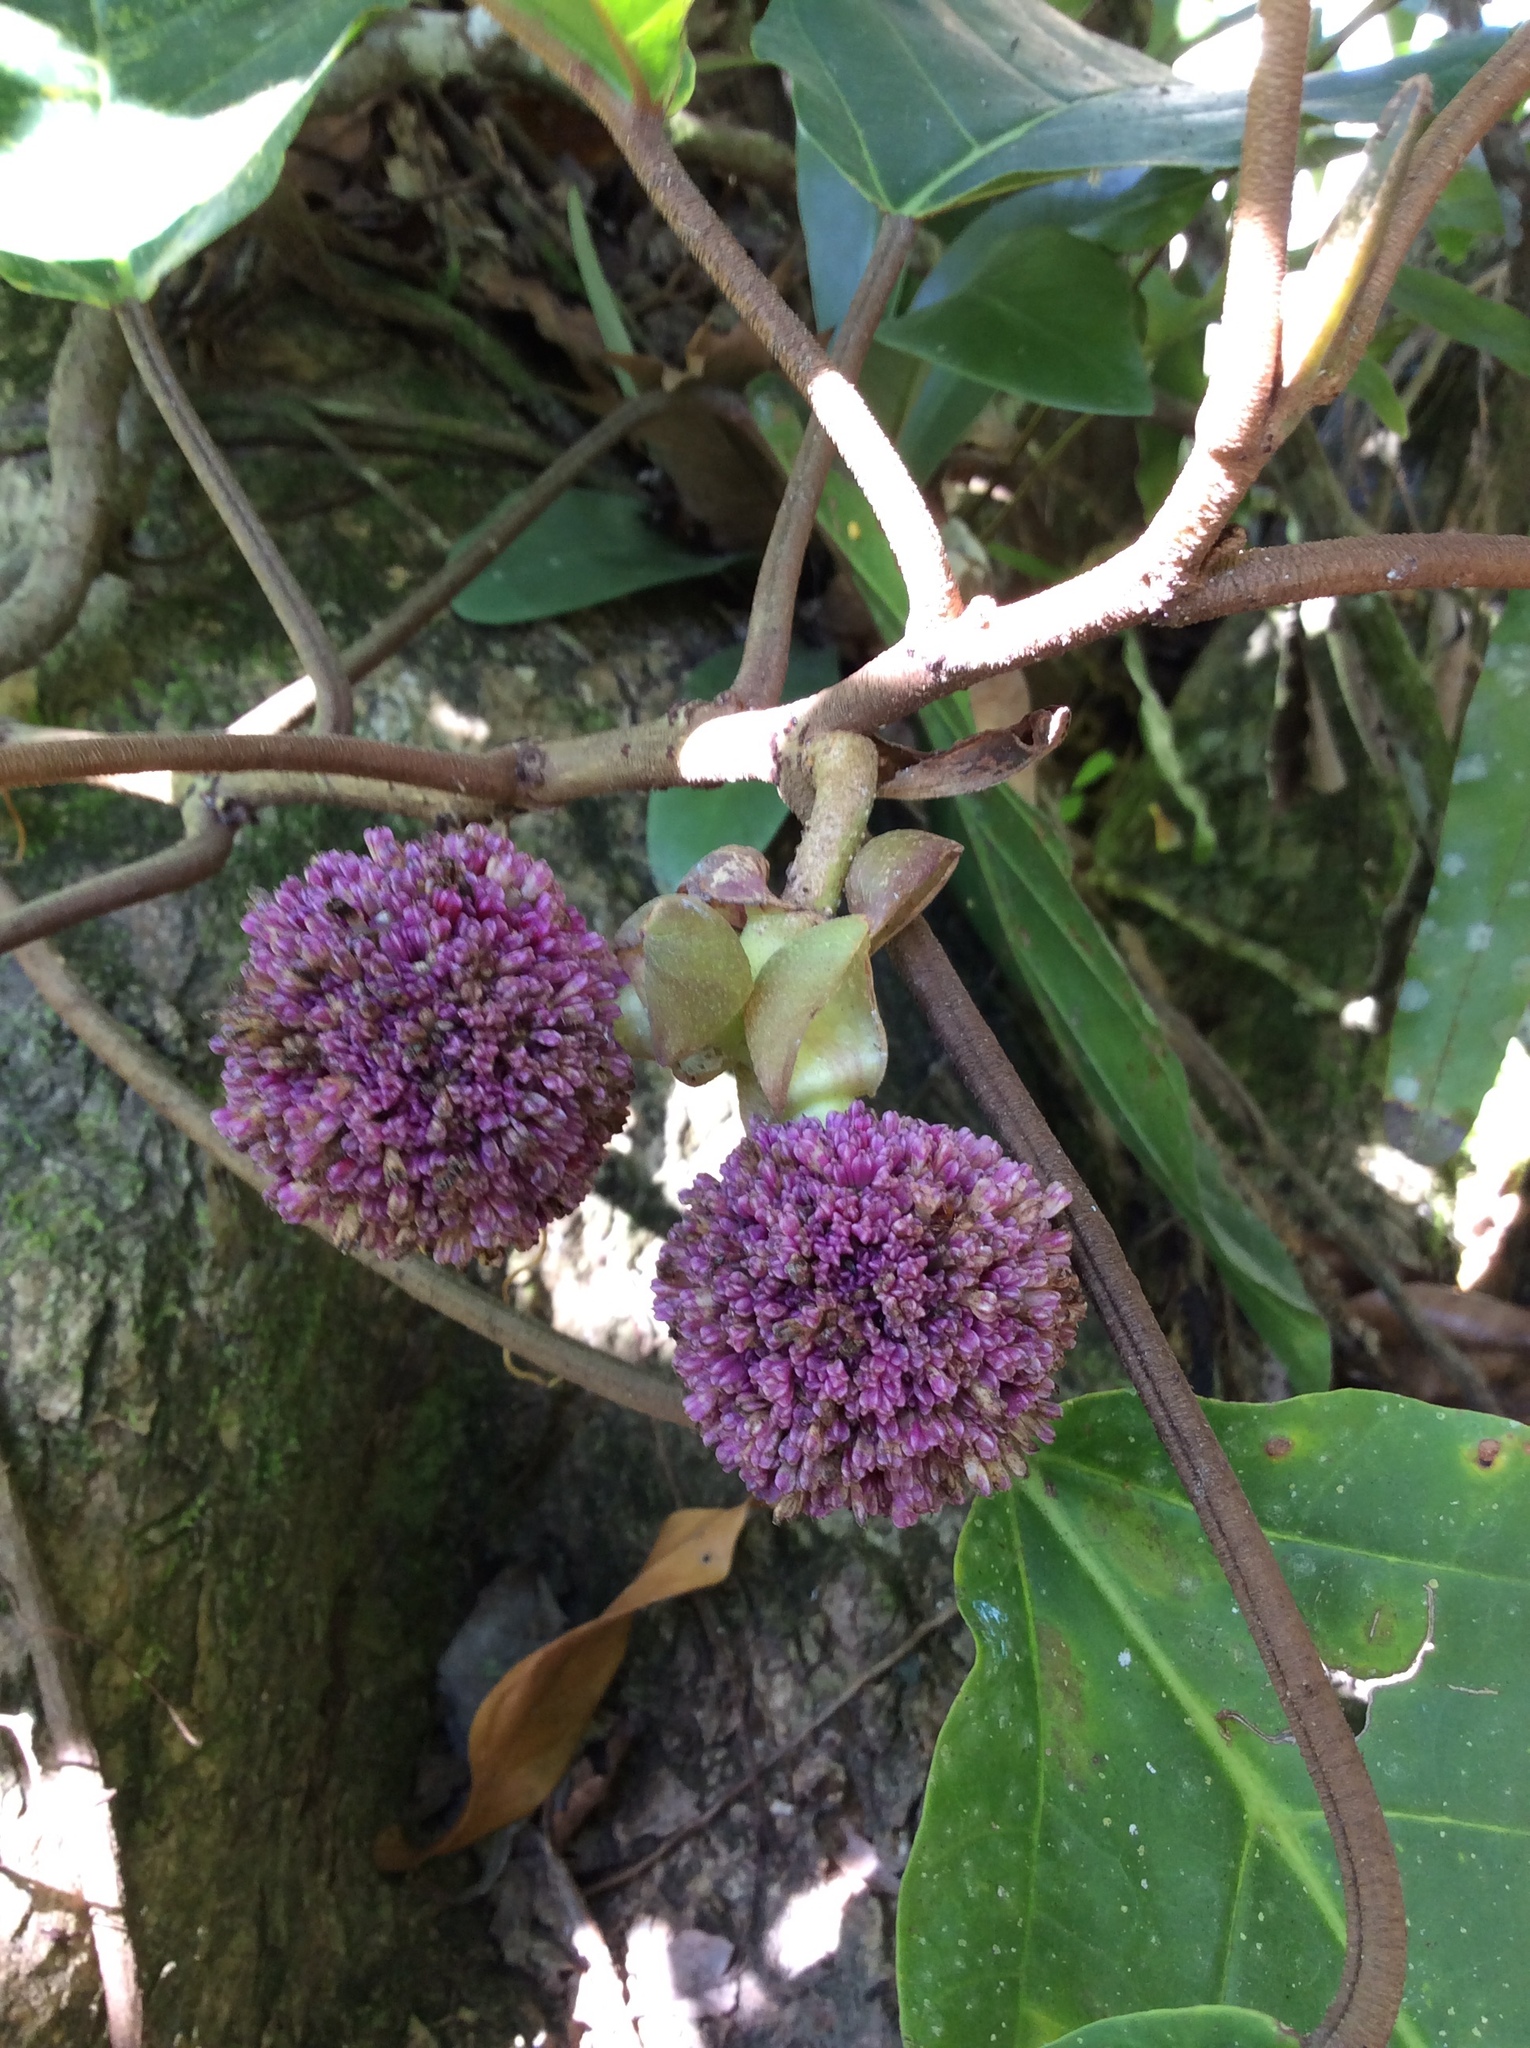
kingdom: Plantae
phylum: Tracheophyta
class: Magnoliopsida
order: Rosales
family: Urticaceae
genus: Poikilospermum
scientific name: Poikilospermum suaveolens
